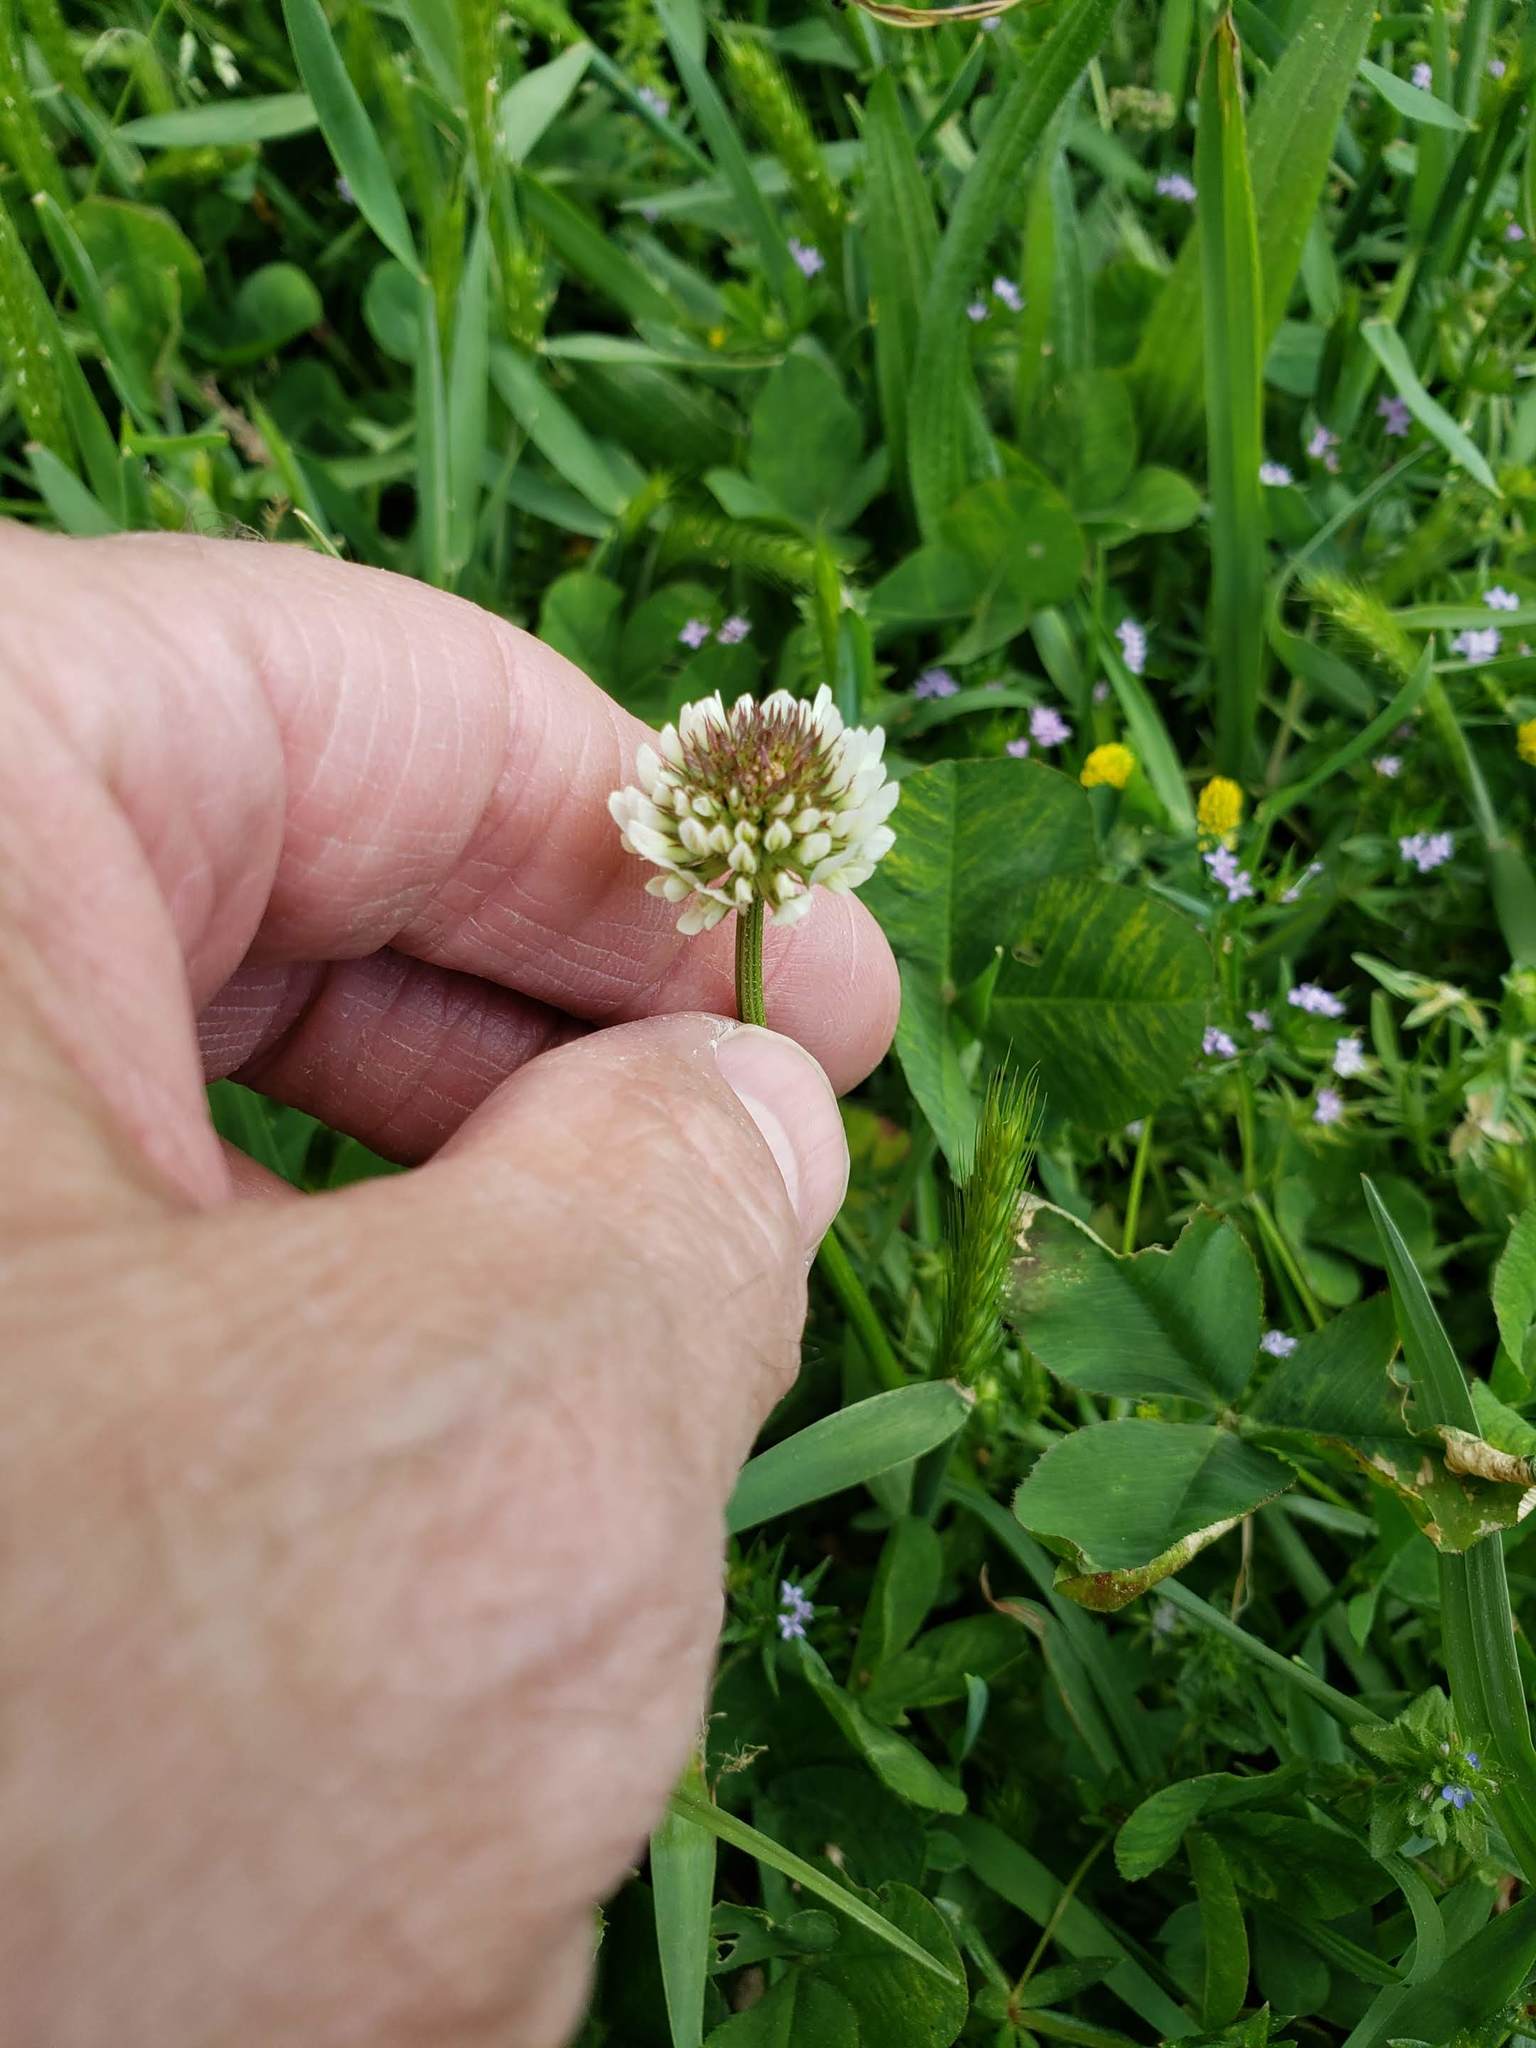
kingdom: Plantae
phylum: Tracheophyta
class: Magnoliopsida
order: Fabales
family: Fabaceae
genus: Trifolium
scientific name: Trifolium repens
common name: White clover
